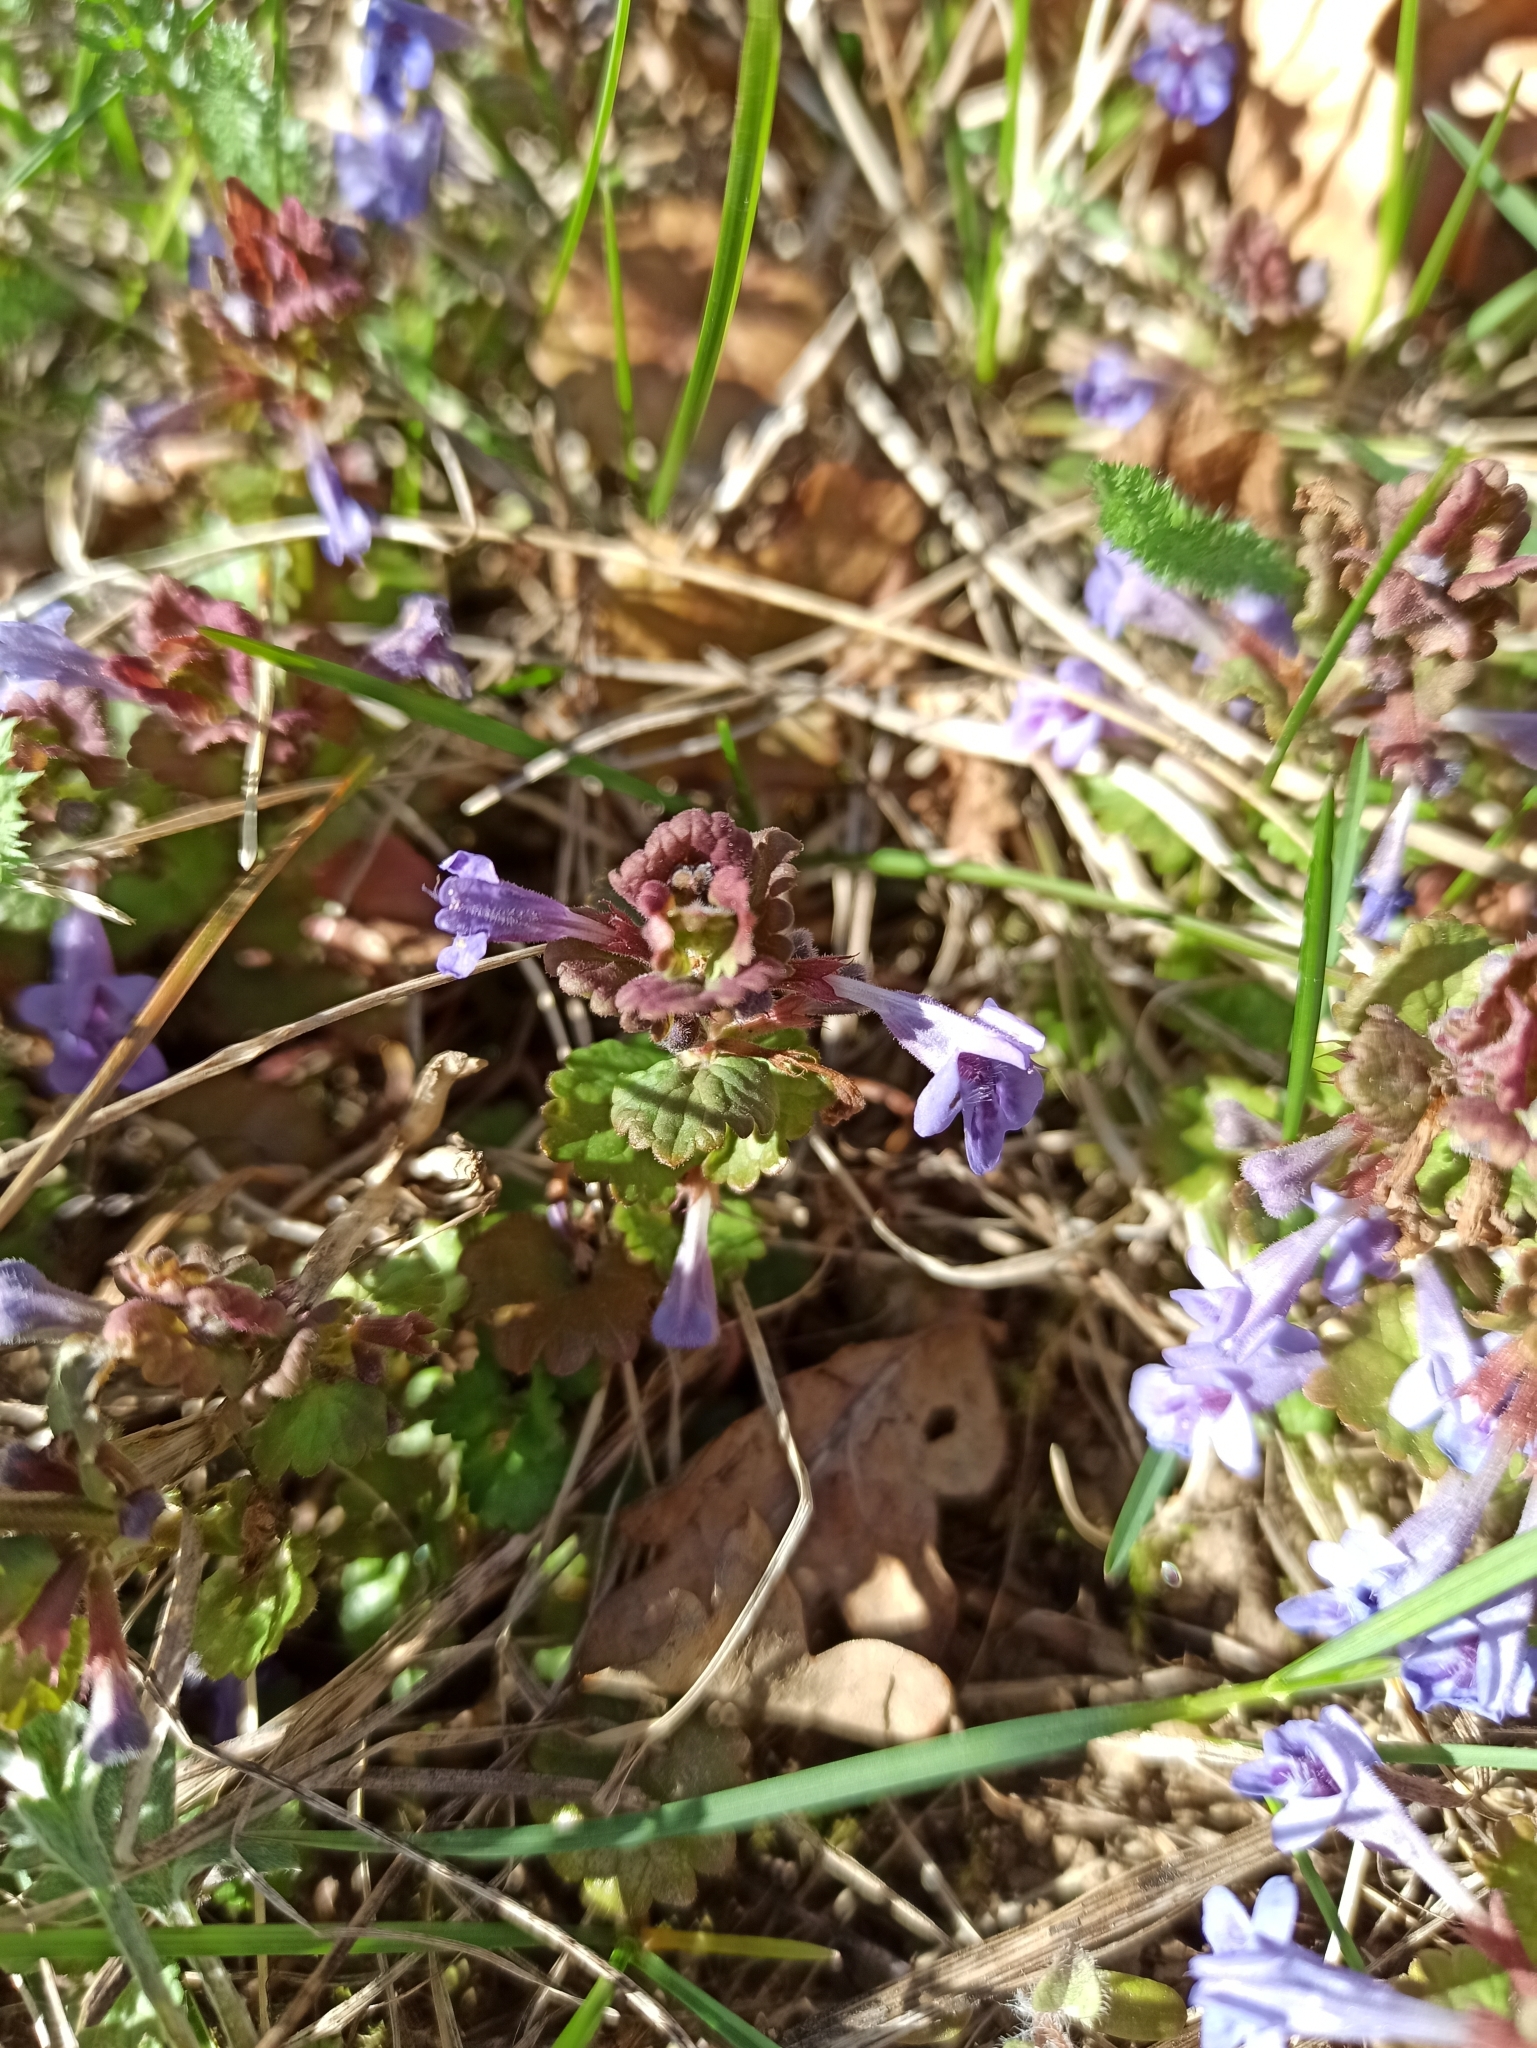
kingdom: Plantae
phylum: Tracheophyta
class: Magnoliopsida
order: Lamiales
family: Lamiaceae
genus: Glechoma
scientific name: Glechoma hederacea
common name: Ground ivy
